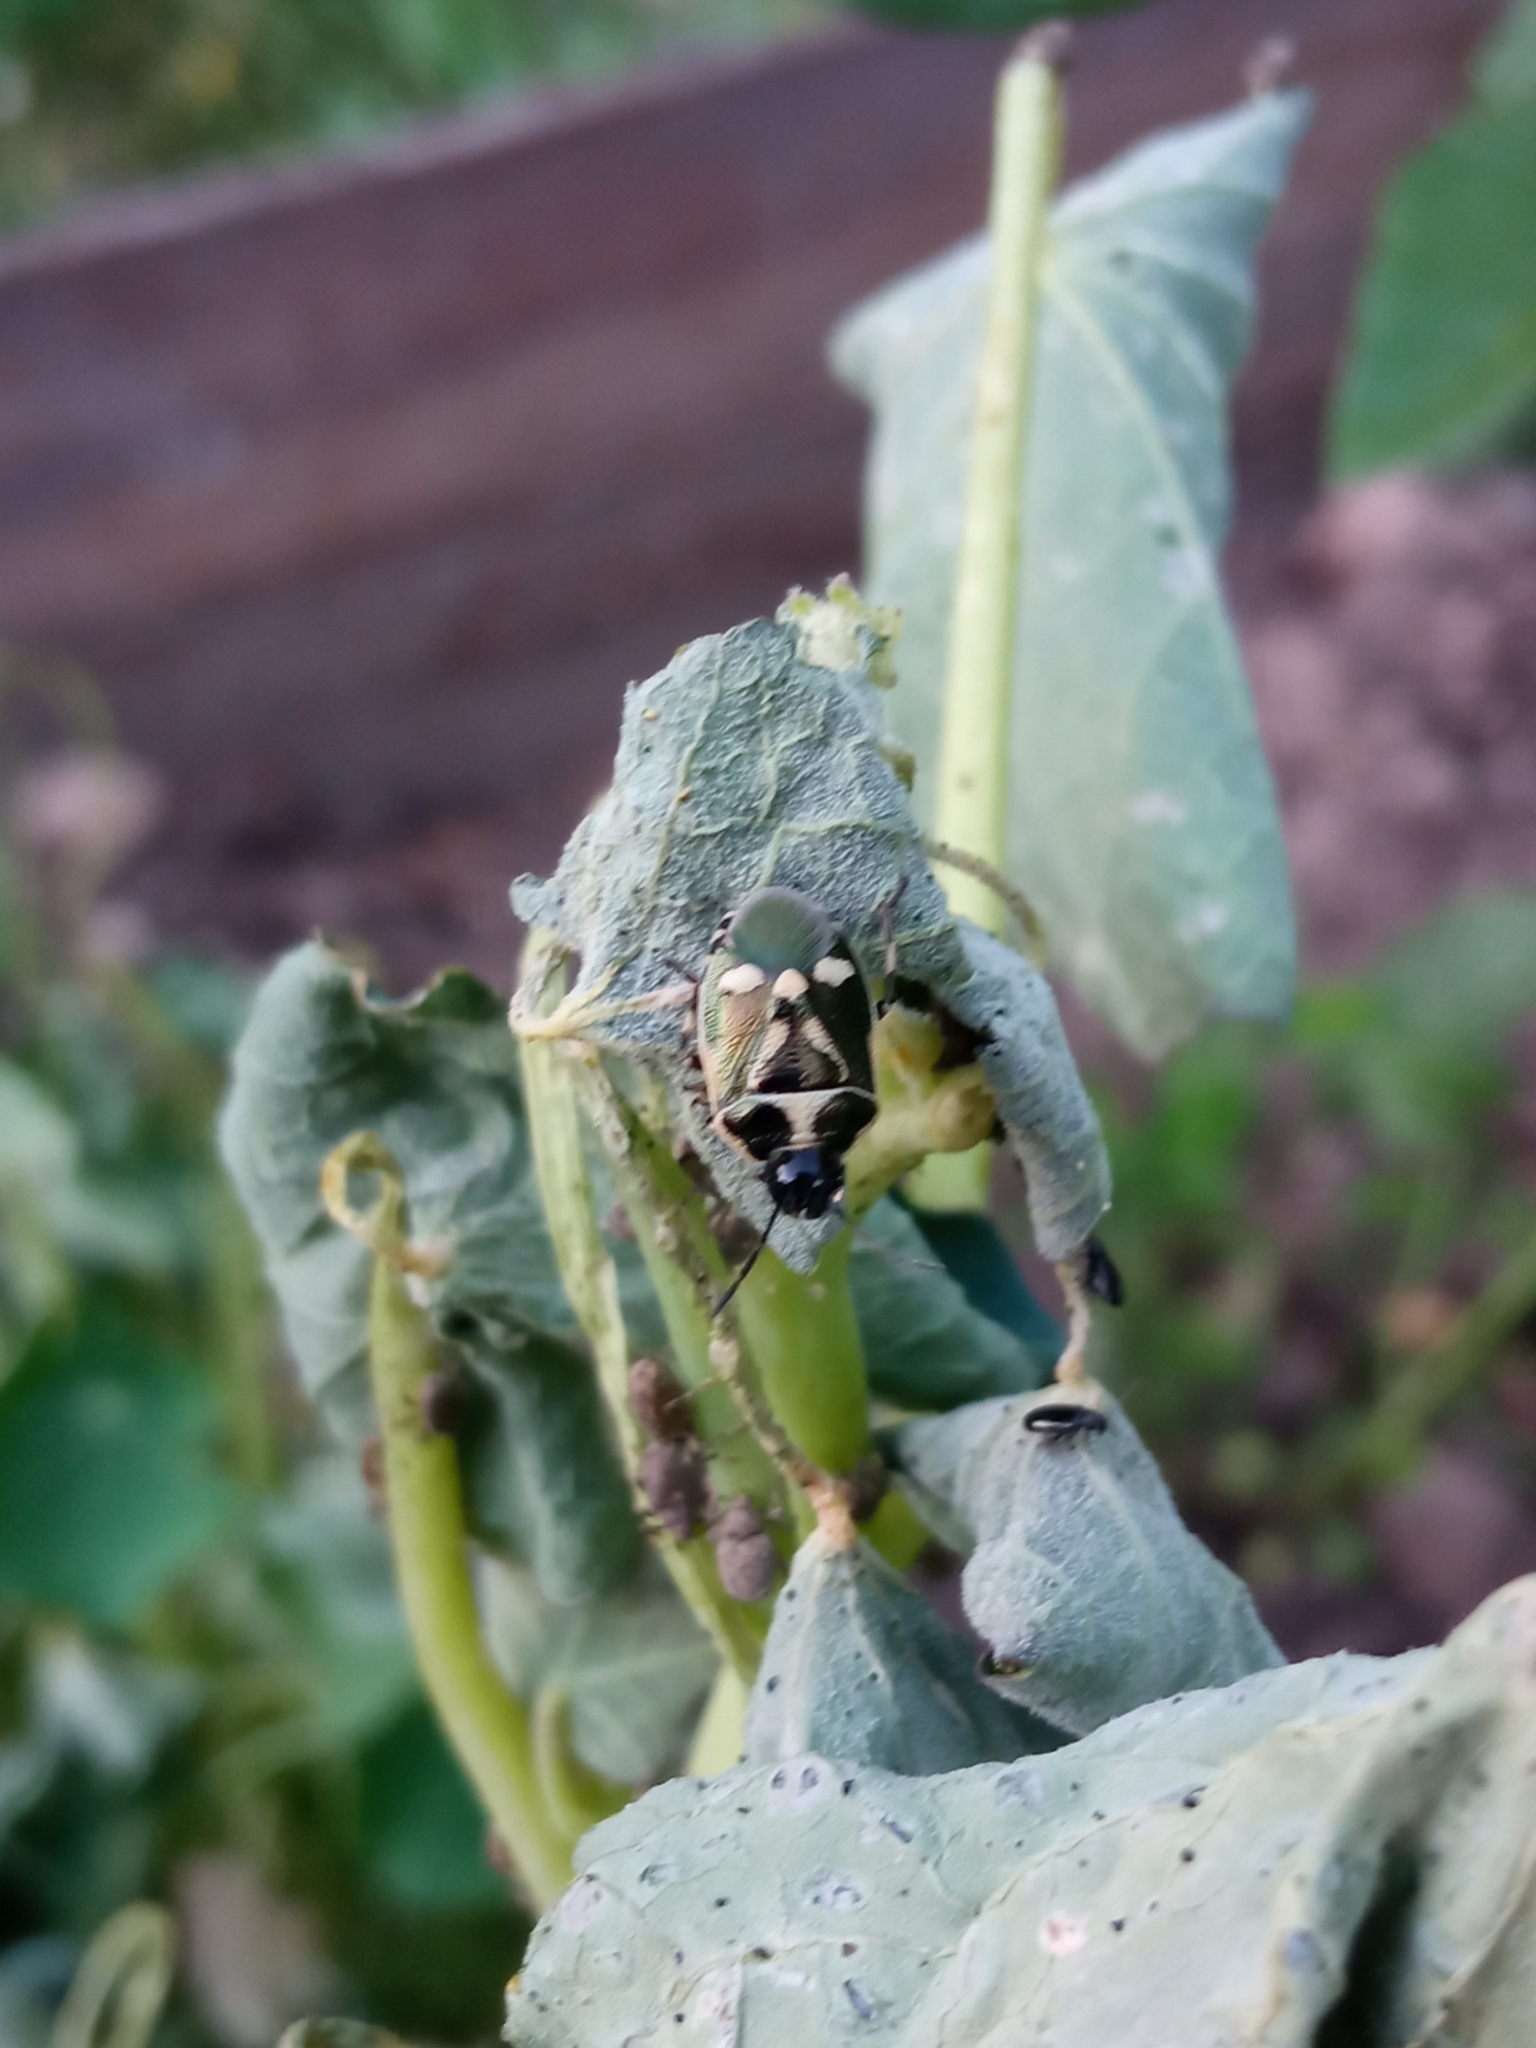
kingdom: Animalia
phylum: Arthropoda
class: Insecta
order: Hemiptera
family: Pentatomidae
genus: Eurydema
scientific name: Eurydema oleracea
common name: Cabbage bug
